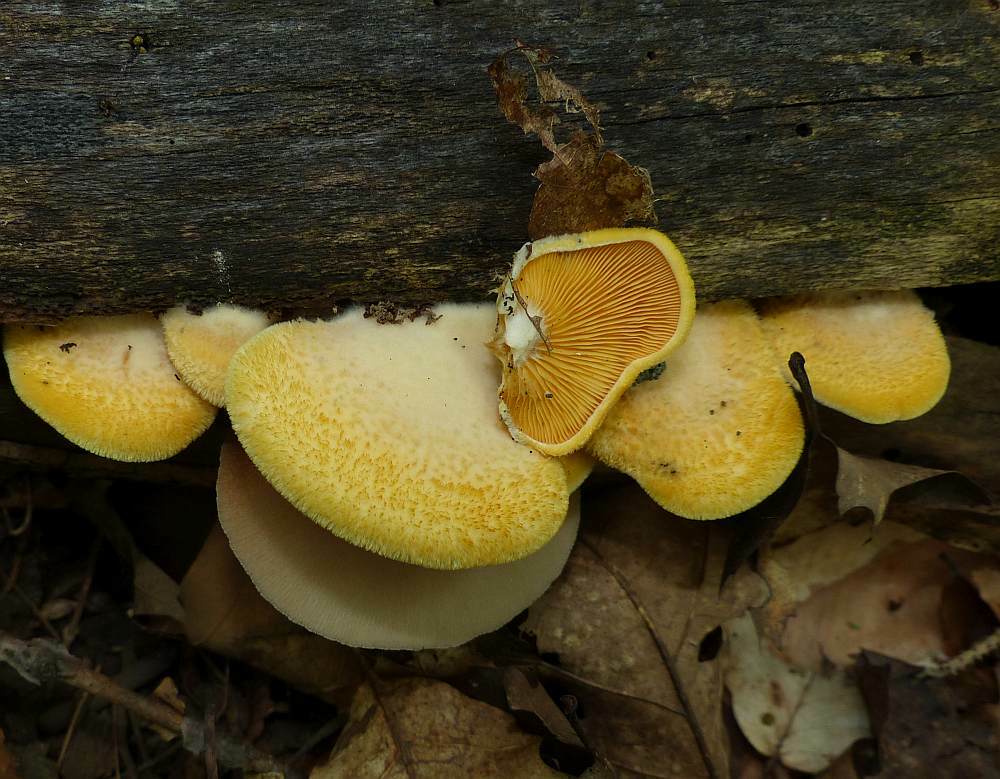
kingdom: Fungi
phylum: Basidiomycota
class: Agaricomycetes
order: Agaricales
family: Phyllotopsidaceae
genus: Phyllotopsis
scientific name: Phyllotopsis nidulans
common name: Orange mock oyster
